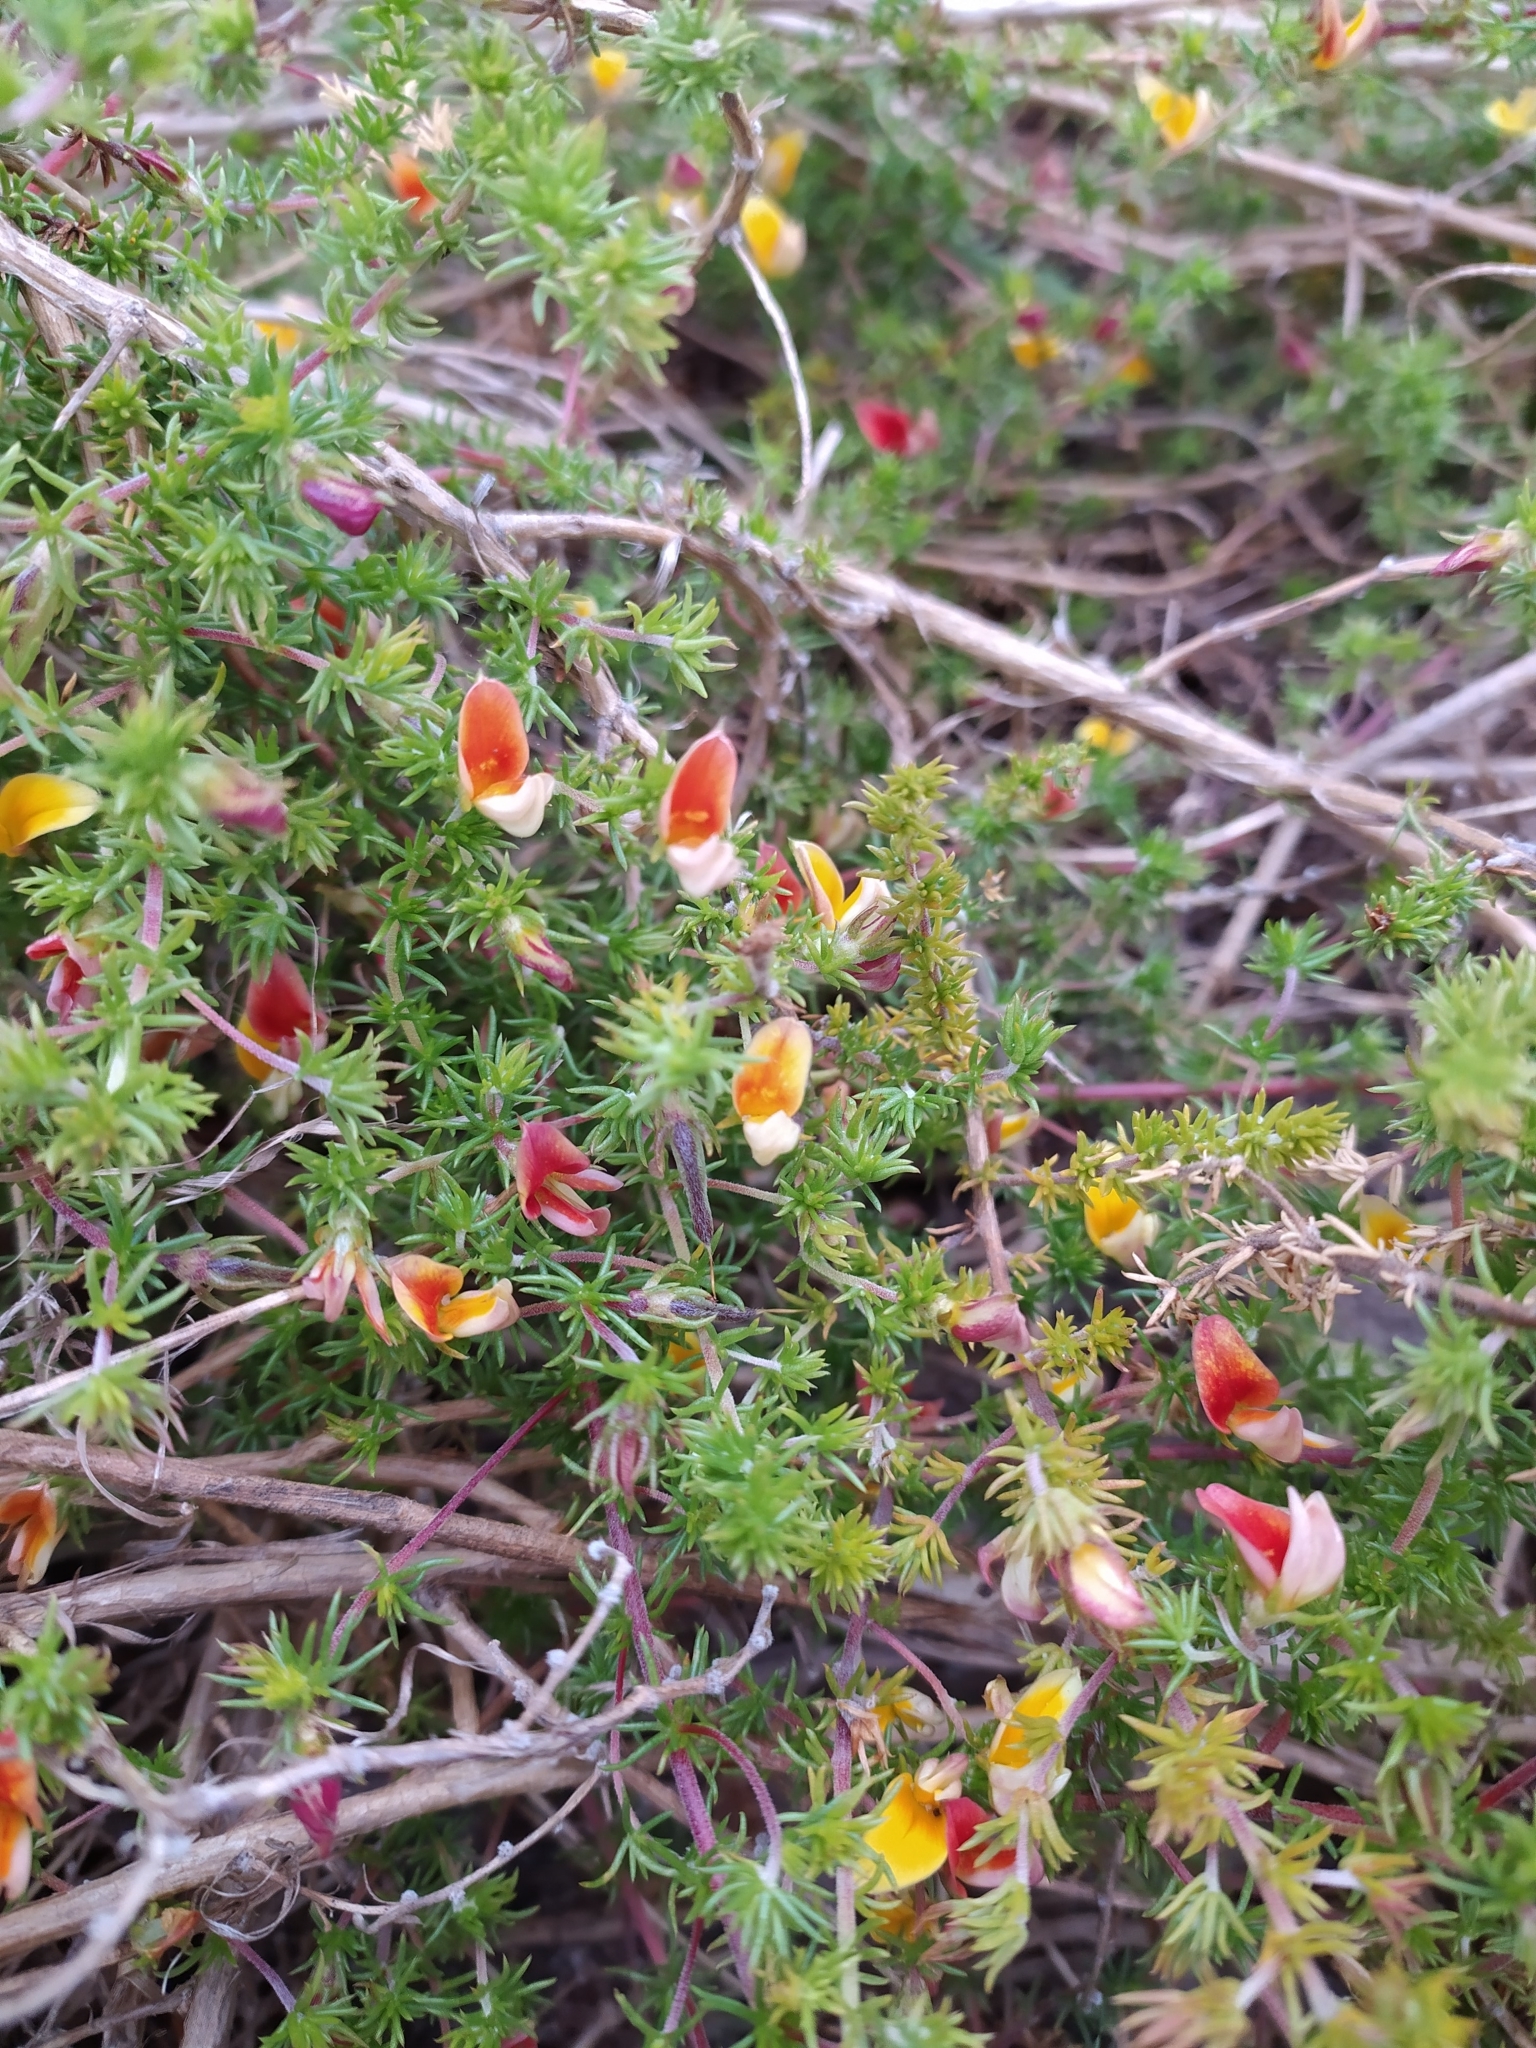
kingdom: Plantae
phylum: Tracheophyta
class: Magnoliopsida
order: Fabales
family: Fabaceae
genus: Aspalathus
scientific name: Aspalathus retroflexa
